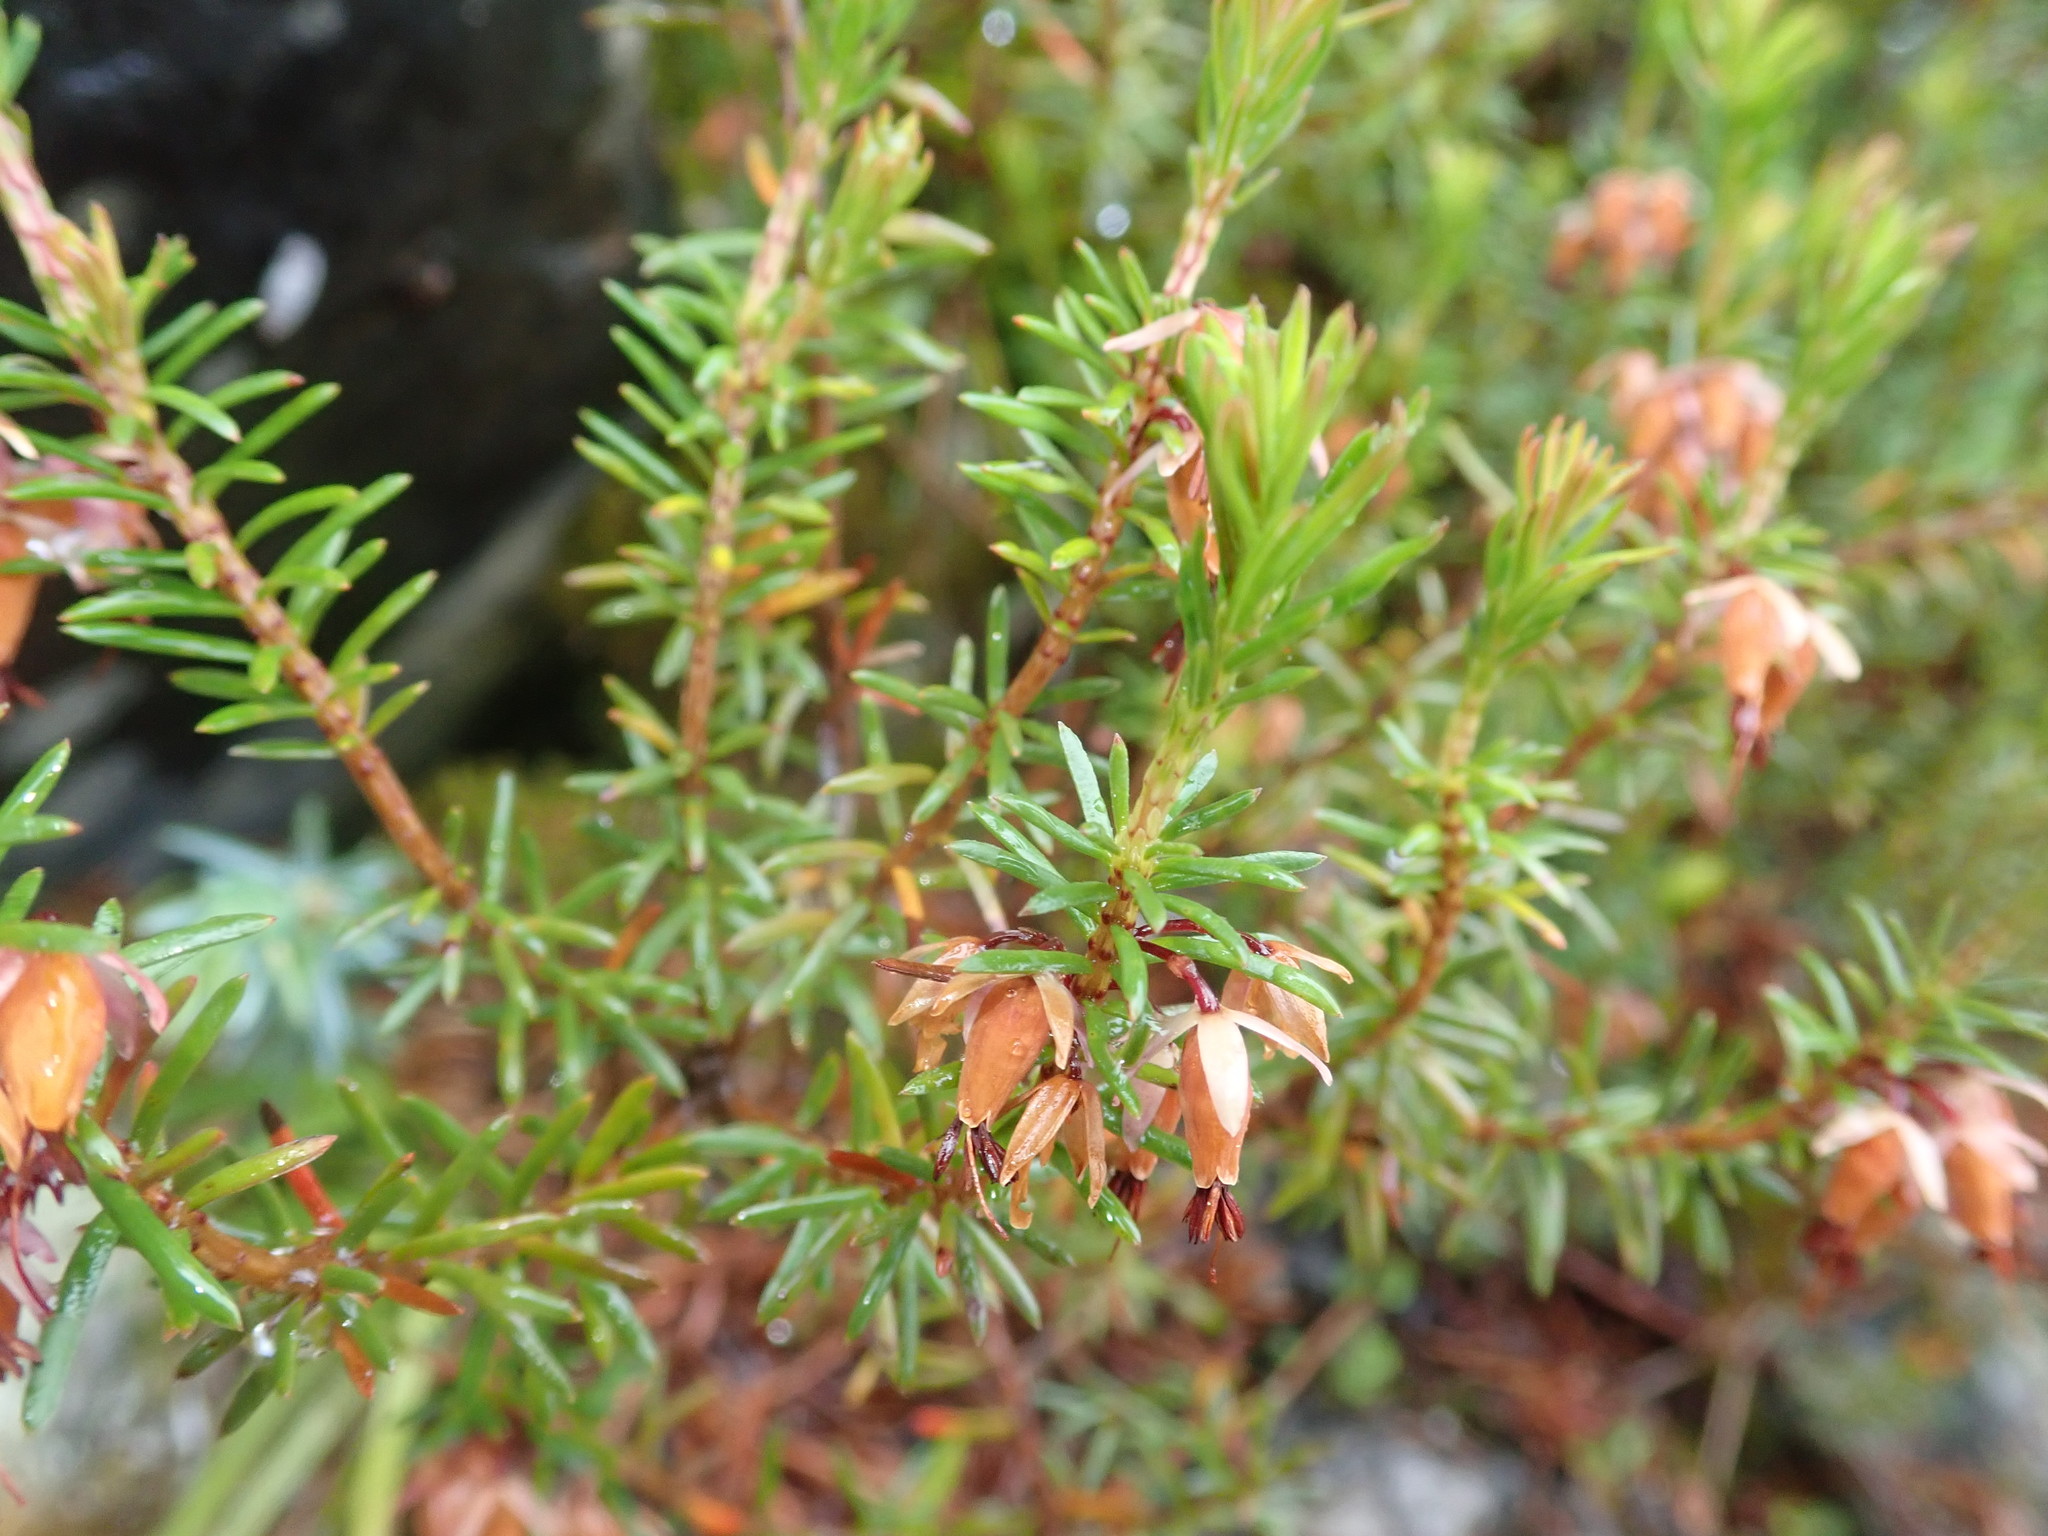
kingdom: Plantae
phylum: Tracheophyta
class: Magnoliopsida
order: Ericales
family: Ericaceae
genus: Erica
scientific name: Erica carnea
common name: Winter heath
